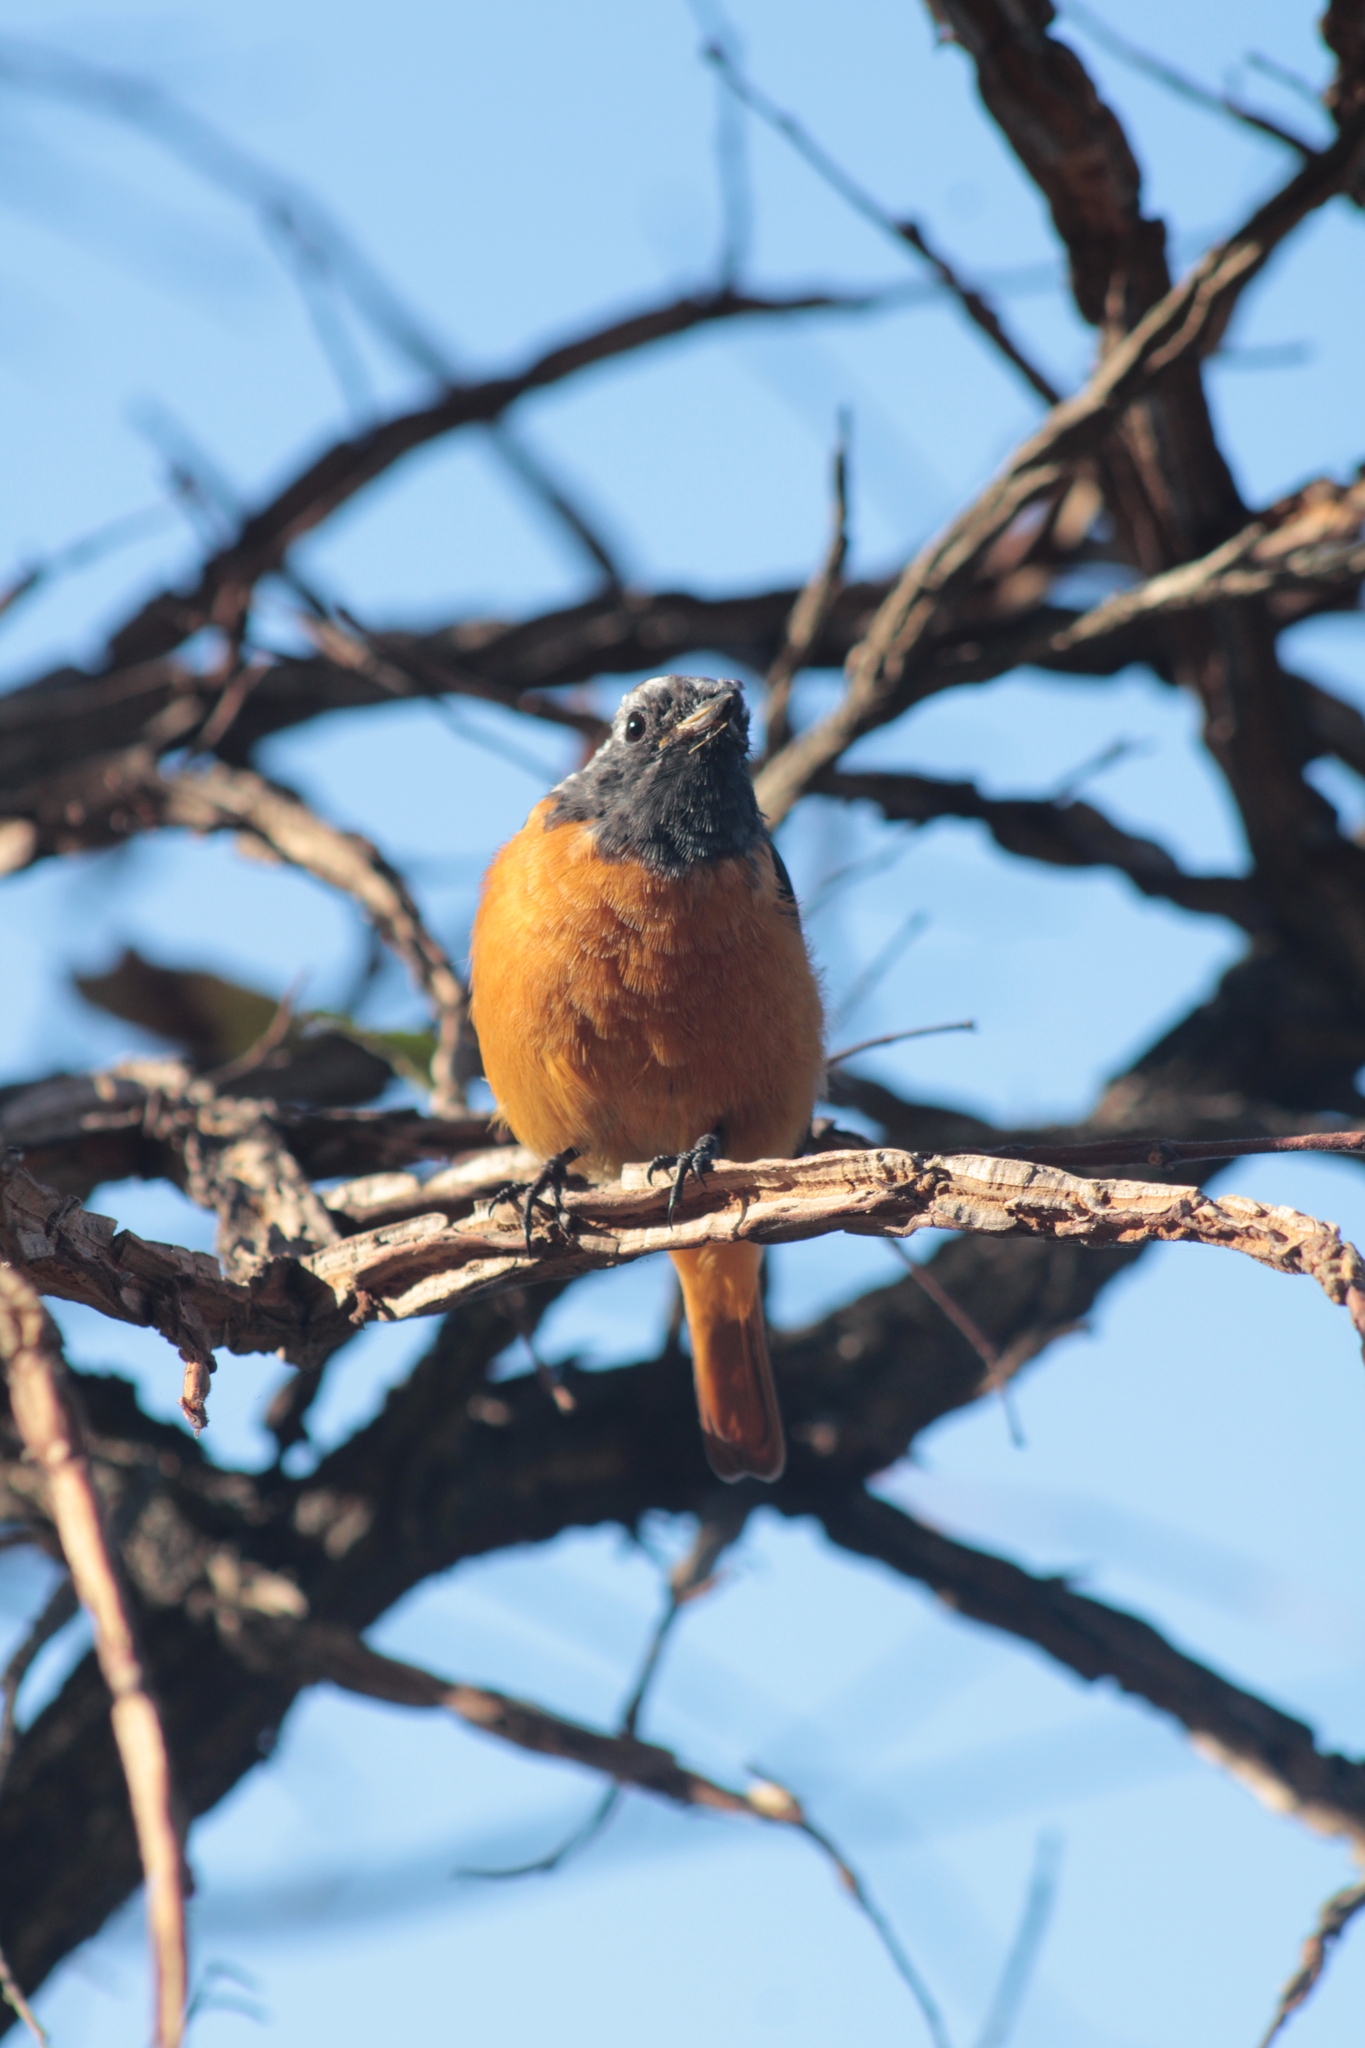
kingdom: Animalia
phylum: Chordata
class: Aves
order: Passeriformes
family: Muscicapidae
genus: Phoenicurus
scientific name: Phoenicurus auroreus
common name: Daurian redstart
